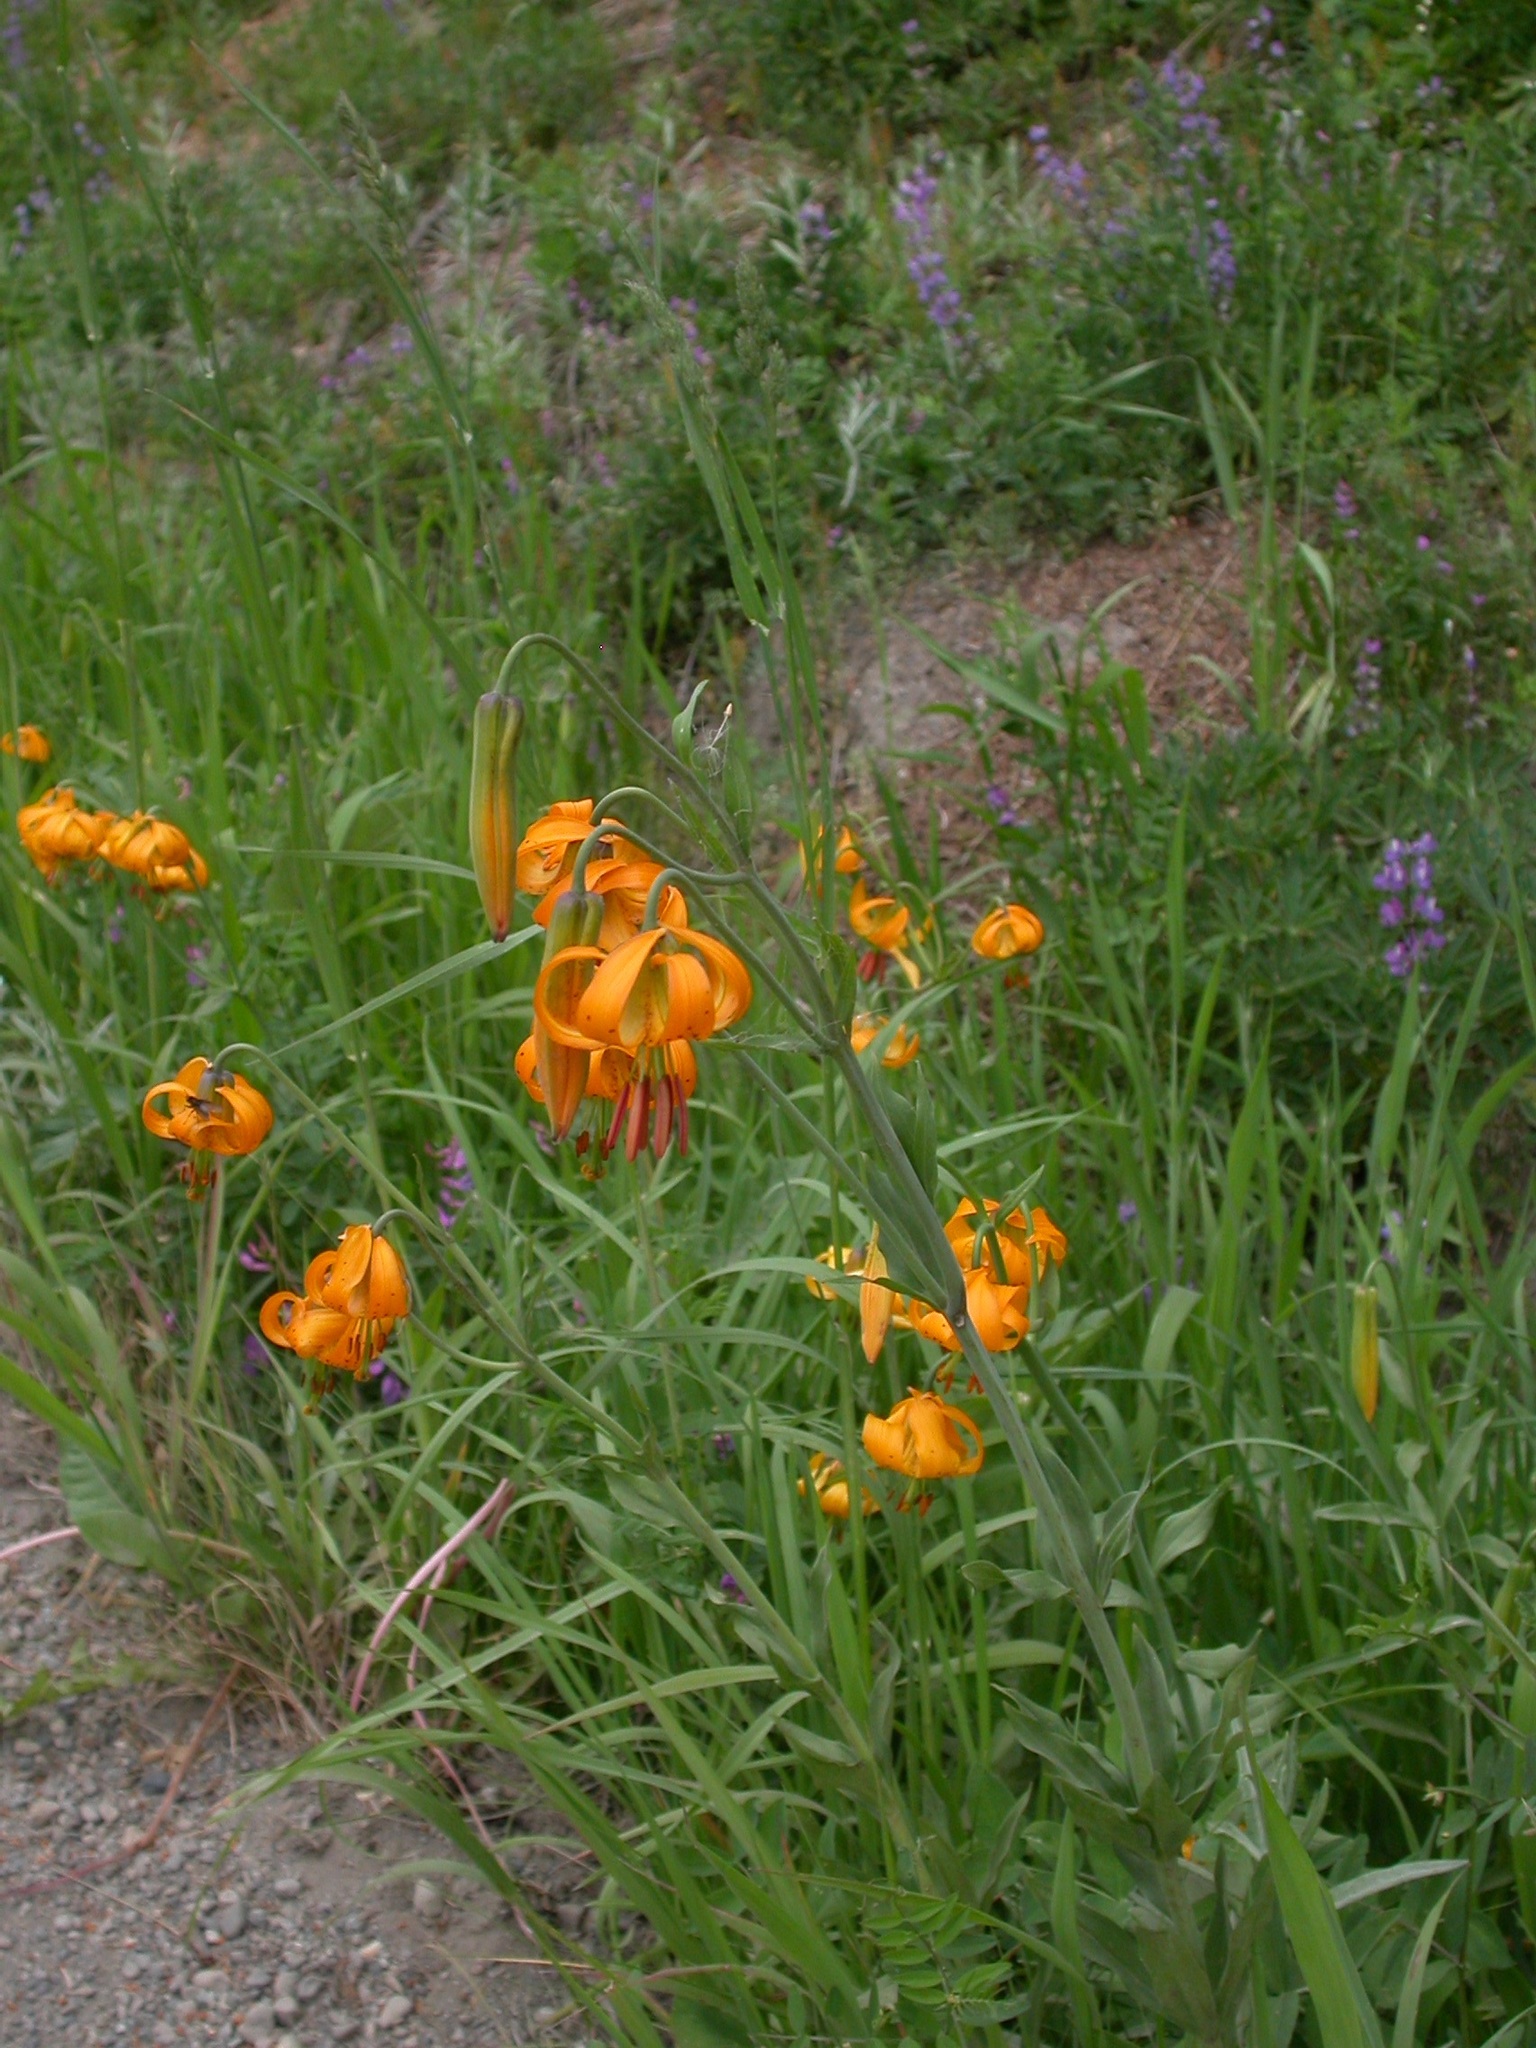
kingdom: Plantae
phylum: Tracheophyta
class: Liliopsida
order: Liliales
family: Liliaceae
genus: Lilium
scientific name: Lilium columbianum
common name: Columbia lily
